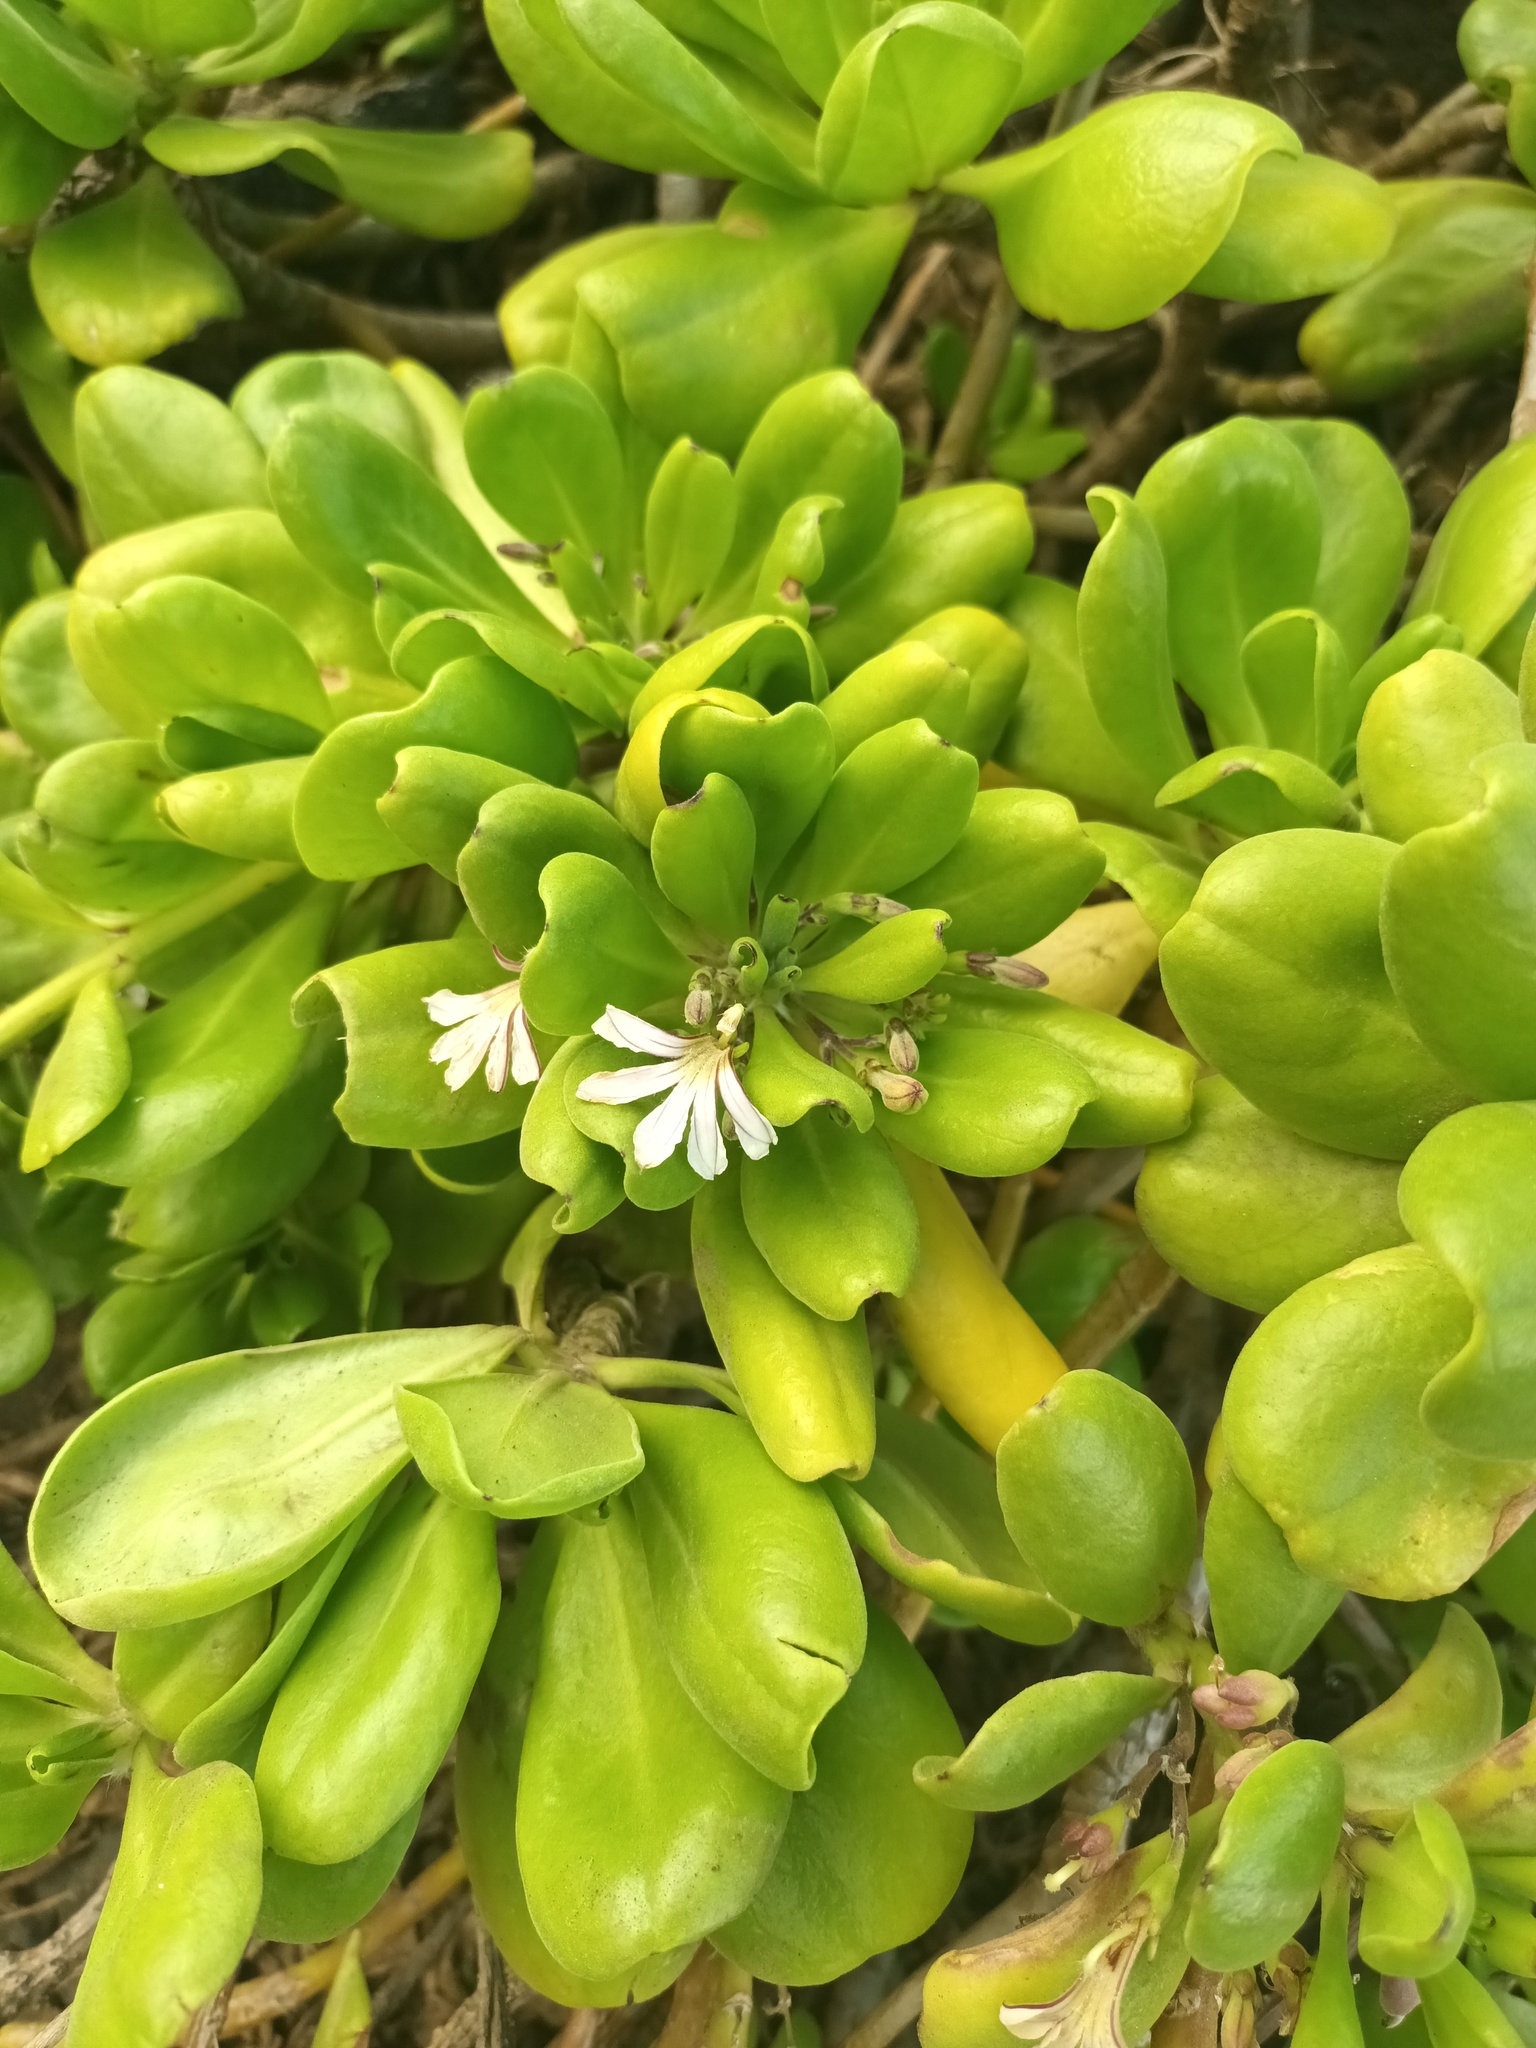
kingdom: Plantae
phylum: Tracheophyta
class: Magnoliopsida
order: Asterales
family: Goodeniaceae
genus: Scaevola
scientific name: Scaevola taccada
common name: Sea lettucetree
